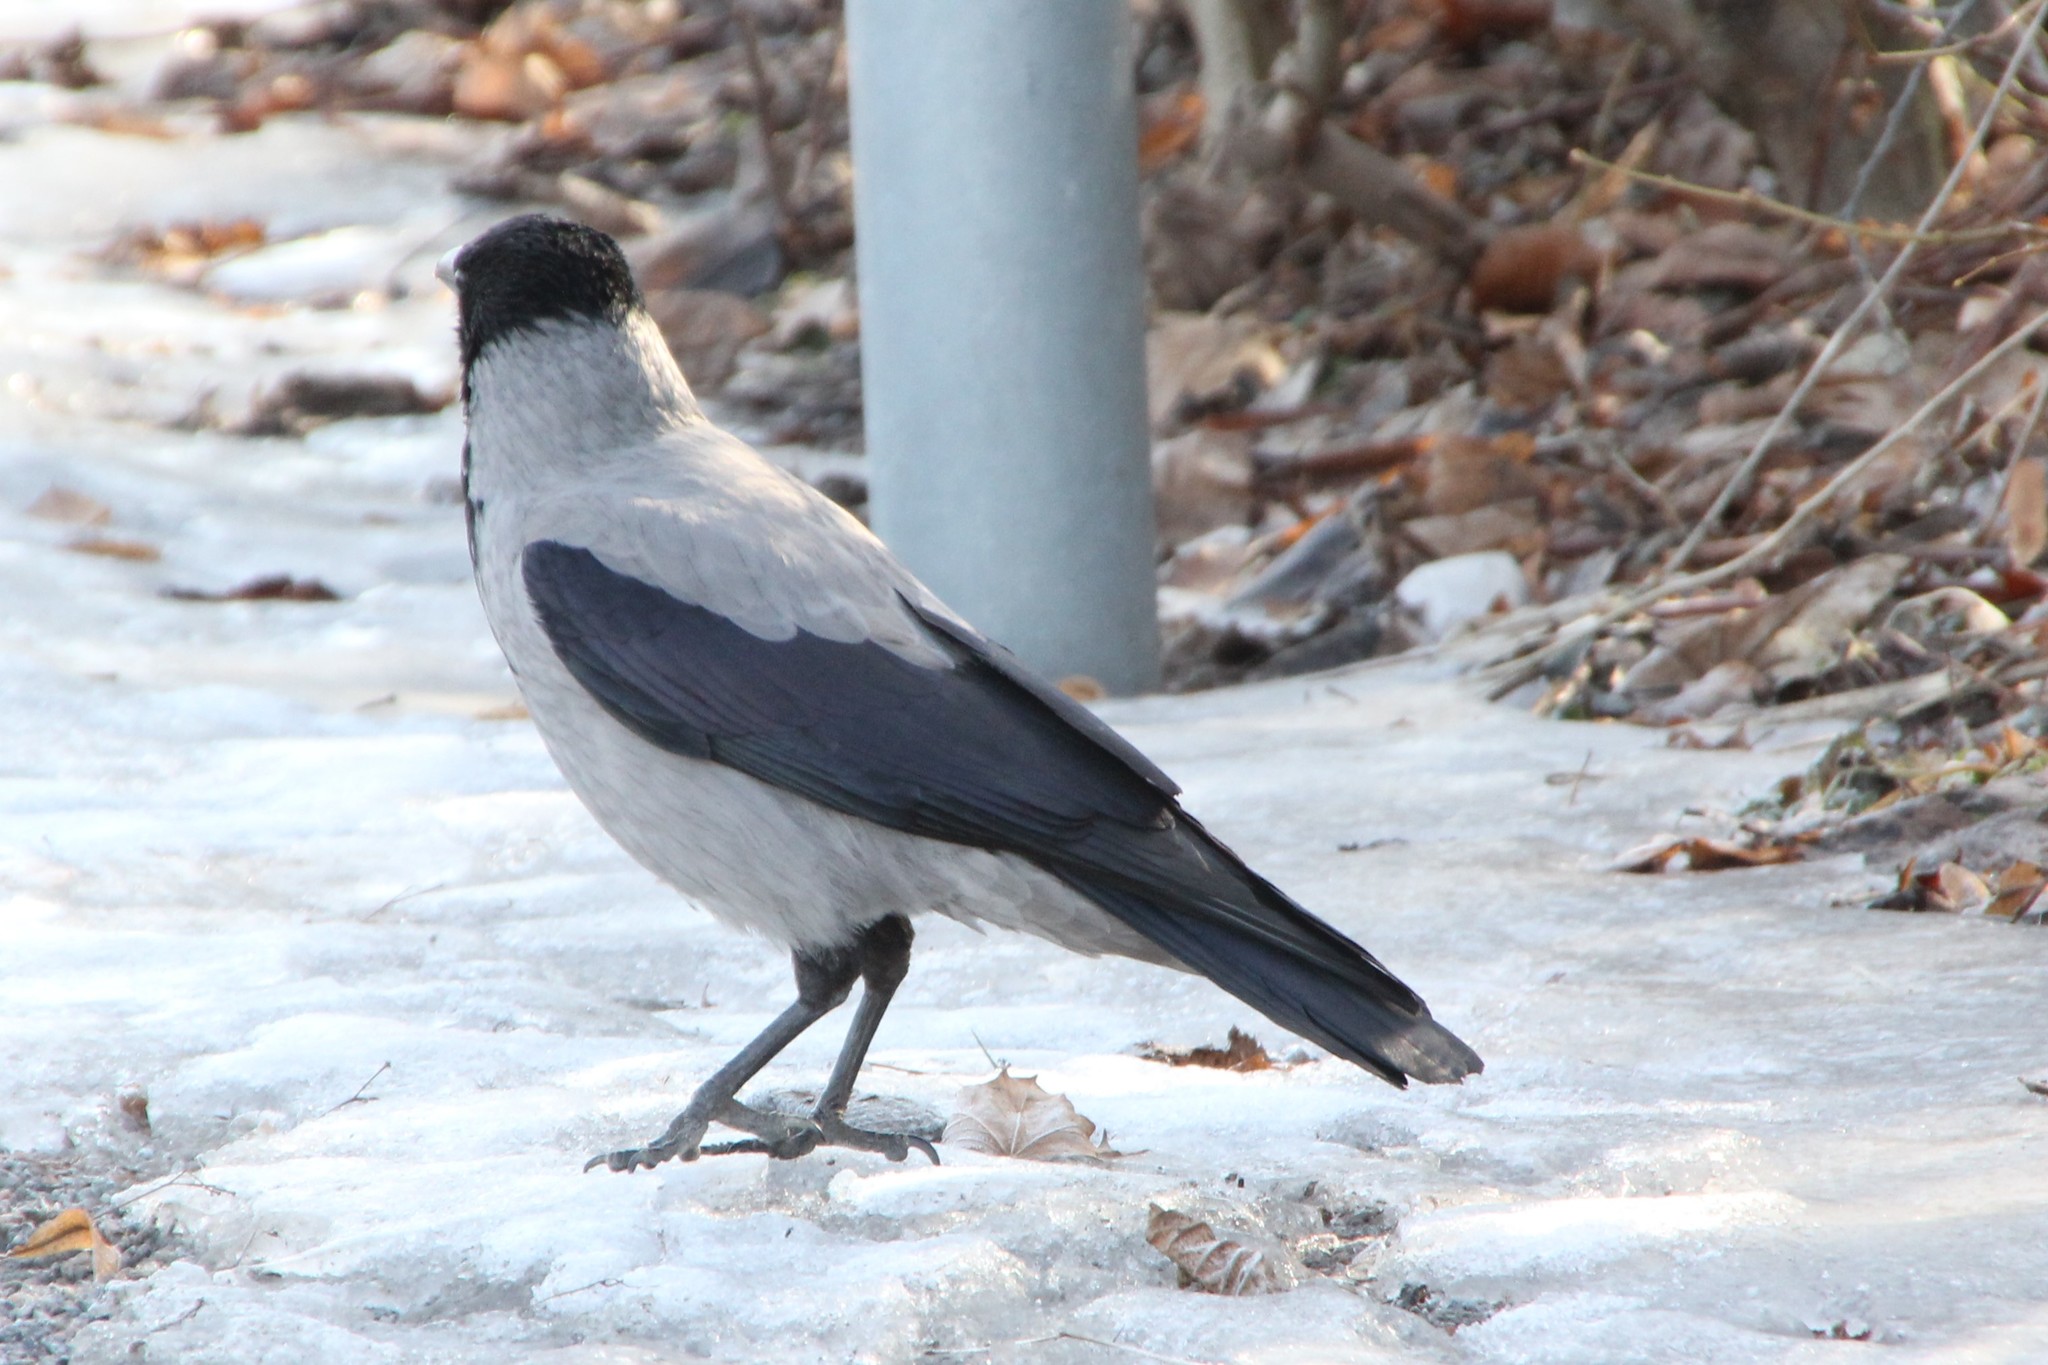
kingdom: Animalia
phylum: Chordata
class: Aves
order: Passeriformes
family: Corvidae
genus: Corvus
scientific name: Corvus cornix
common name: Hooded crow
